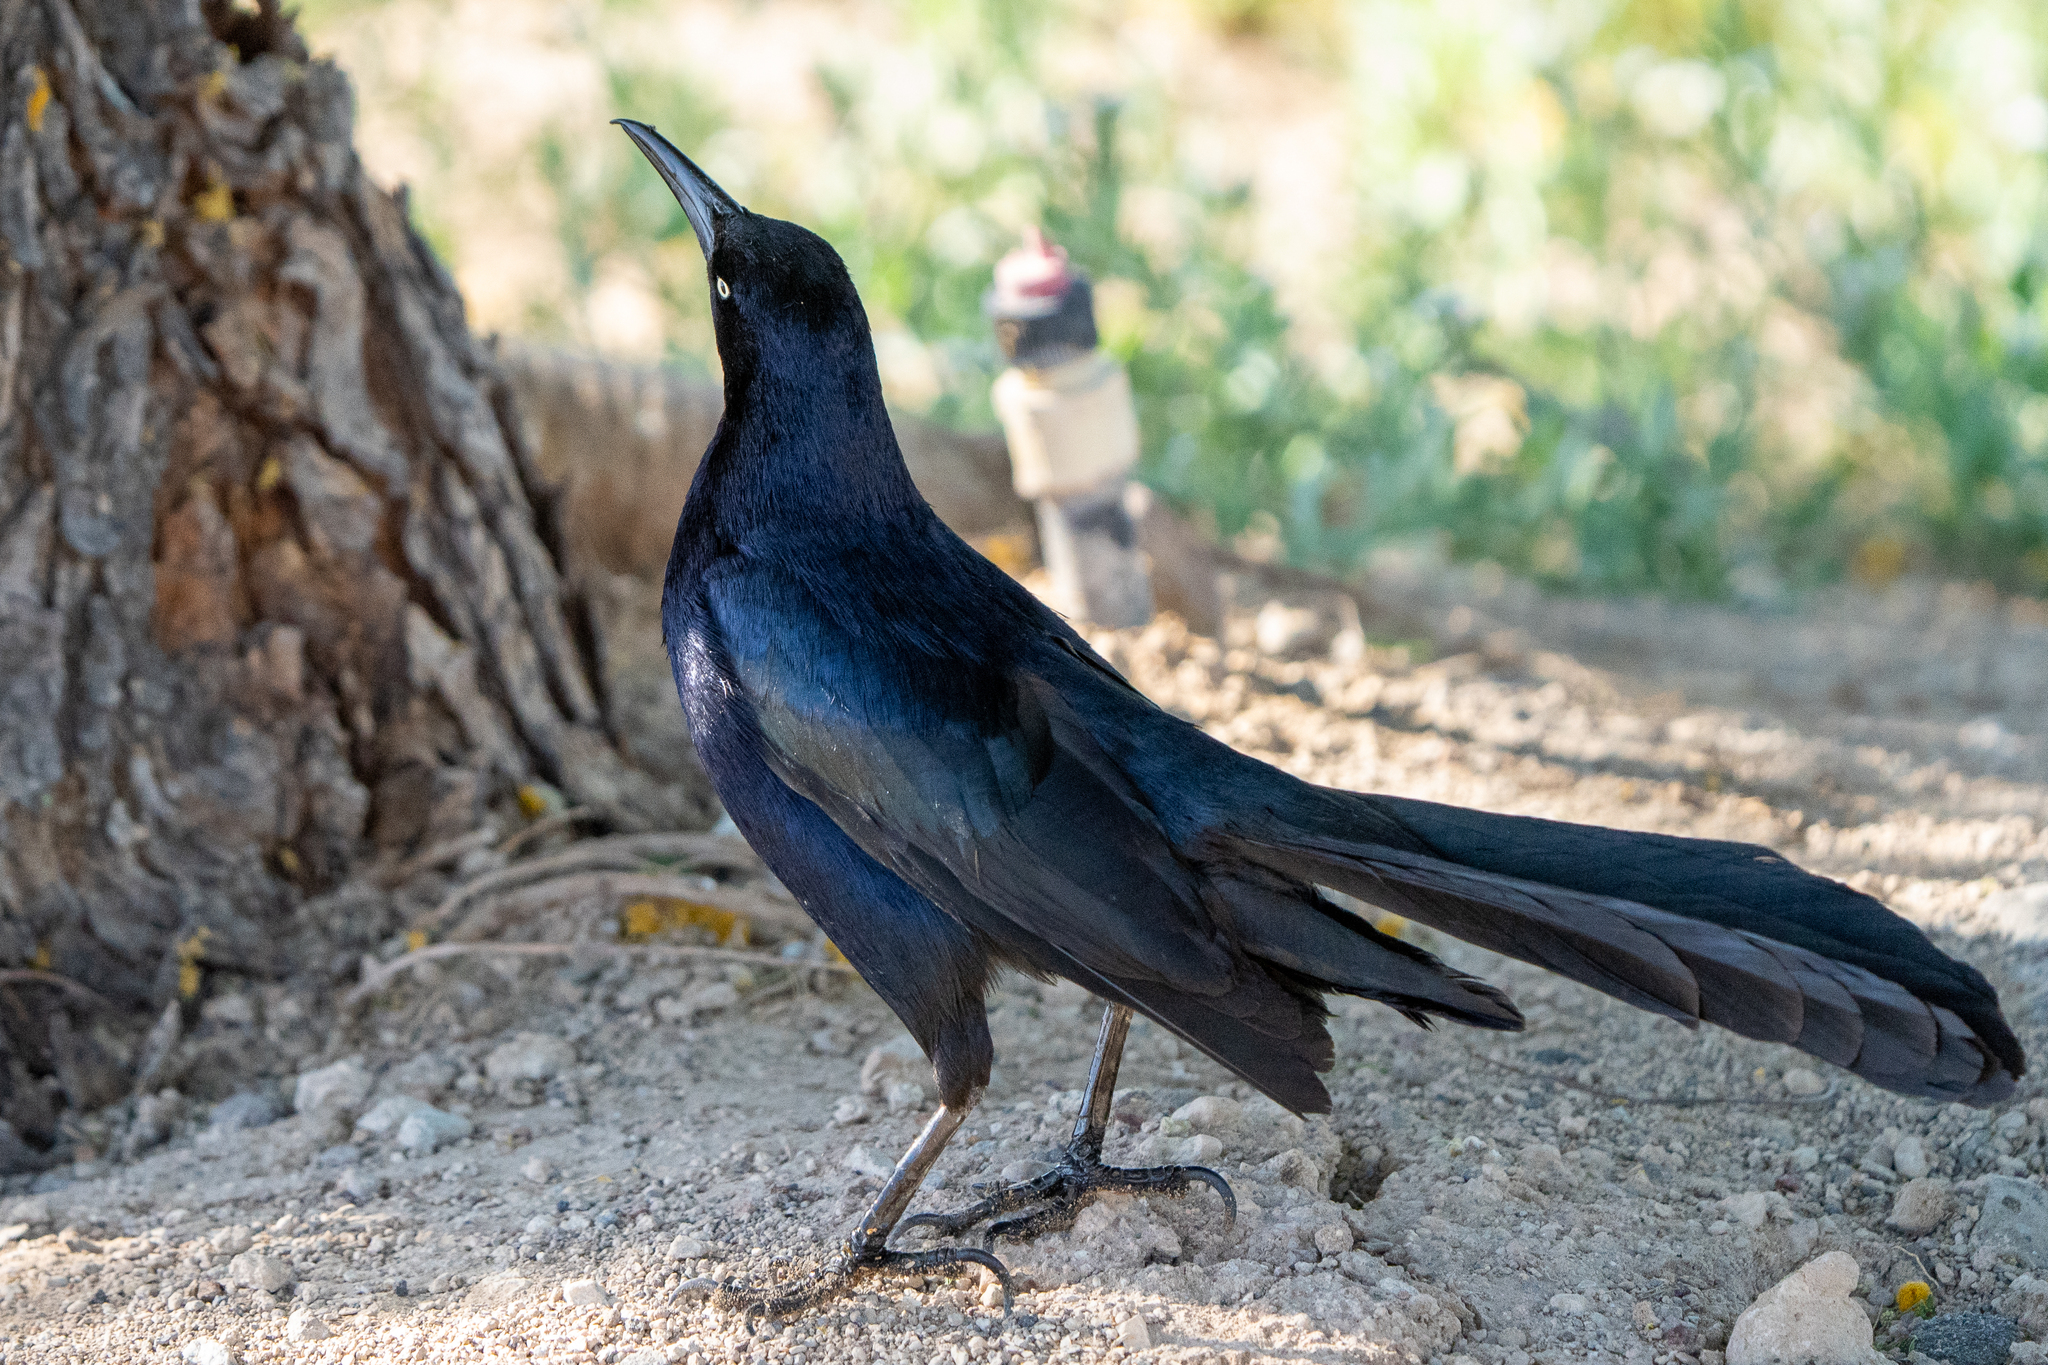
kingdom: Animalia
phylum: Chordata
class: Aves
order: Passeriformes
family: Icteridae
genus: Quiscalus
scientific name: Quiscalus mexicanus
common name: Great-tailed grackle
